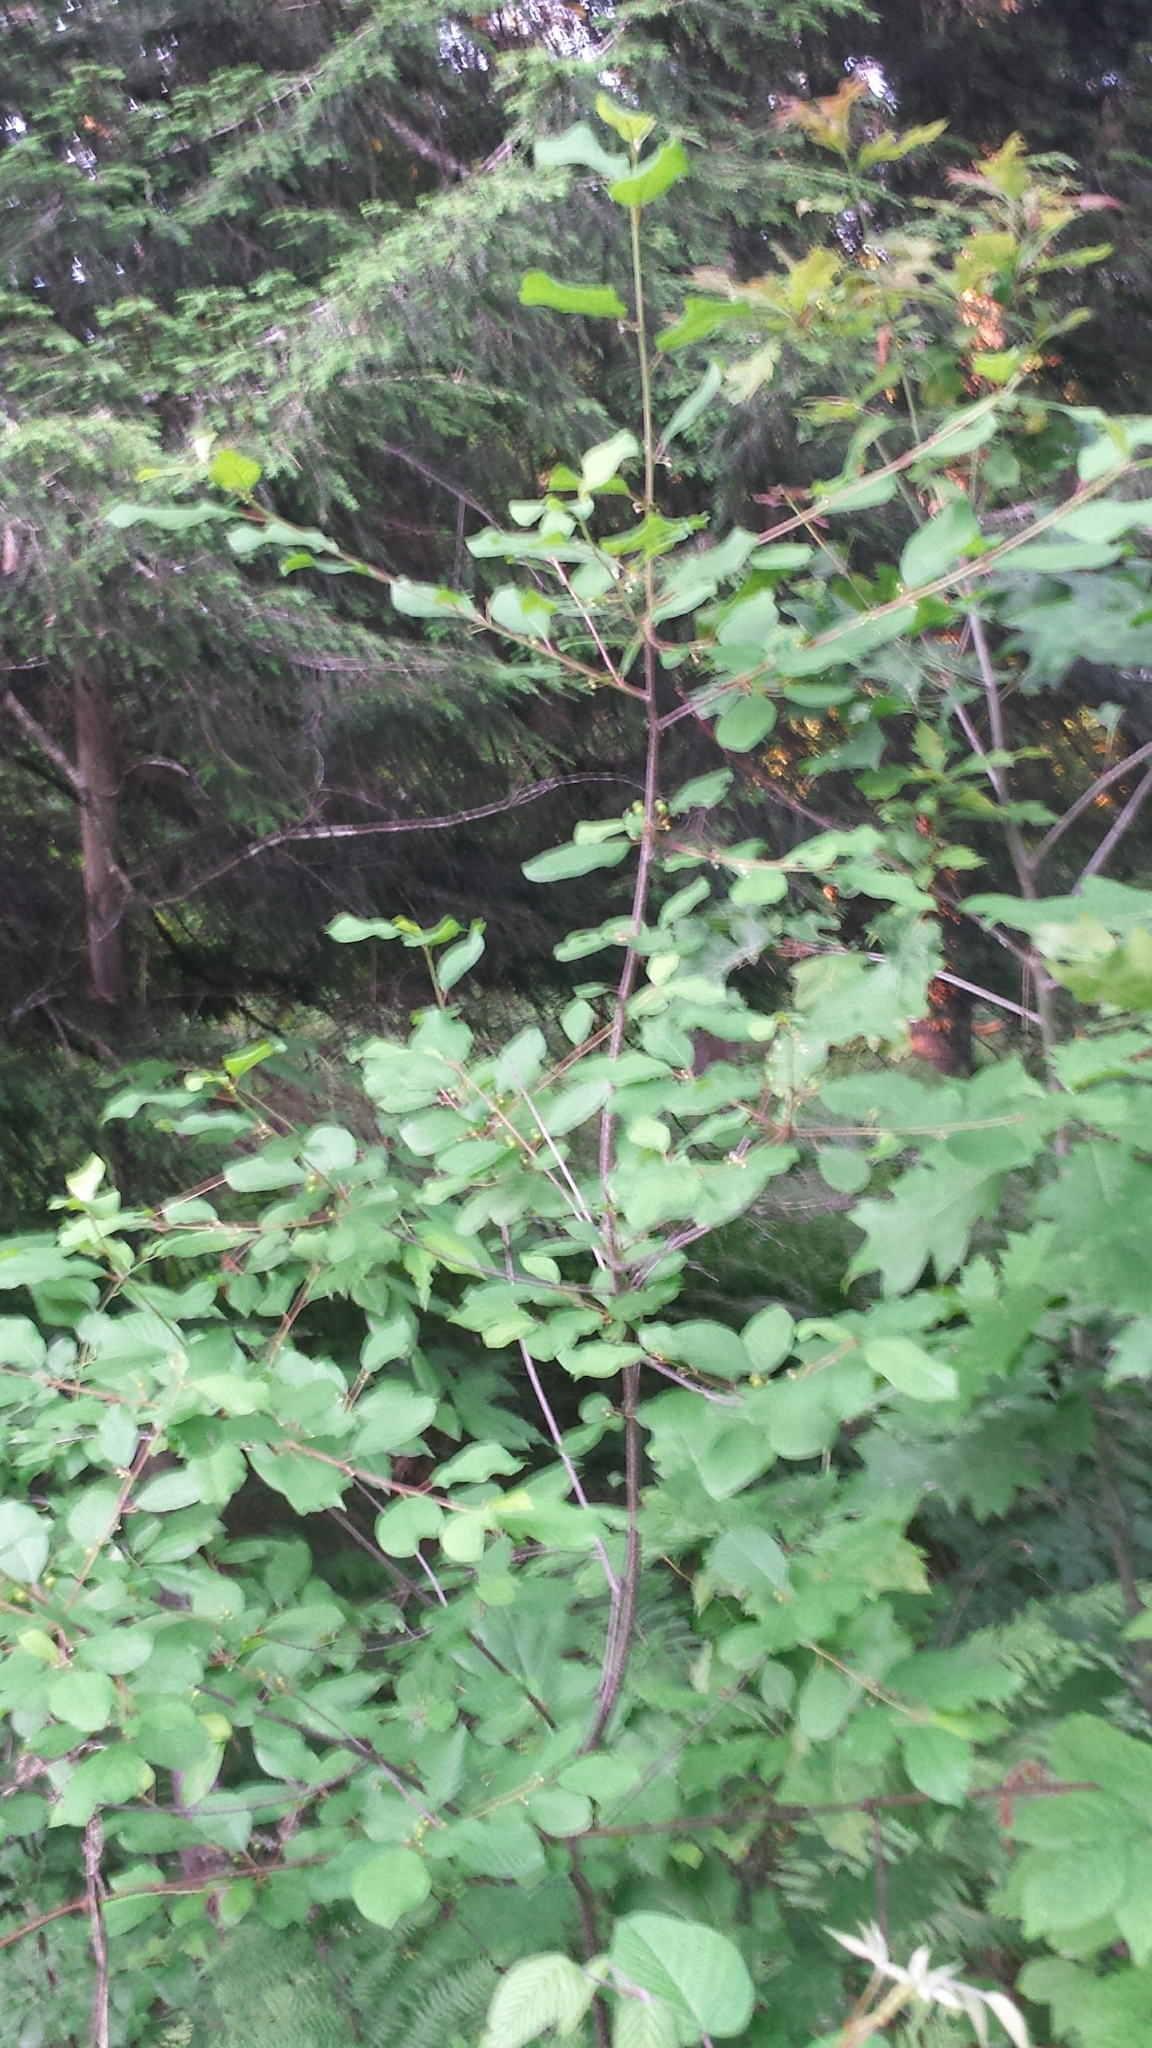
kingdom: Plantae
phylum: Tracheophyta
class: Magnoliopsida
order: Rosales
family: Rhamnaceae
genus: Frangula
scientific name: Frangula alnus
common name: Alder buckthorn
